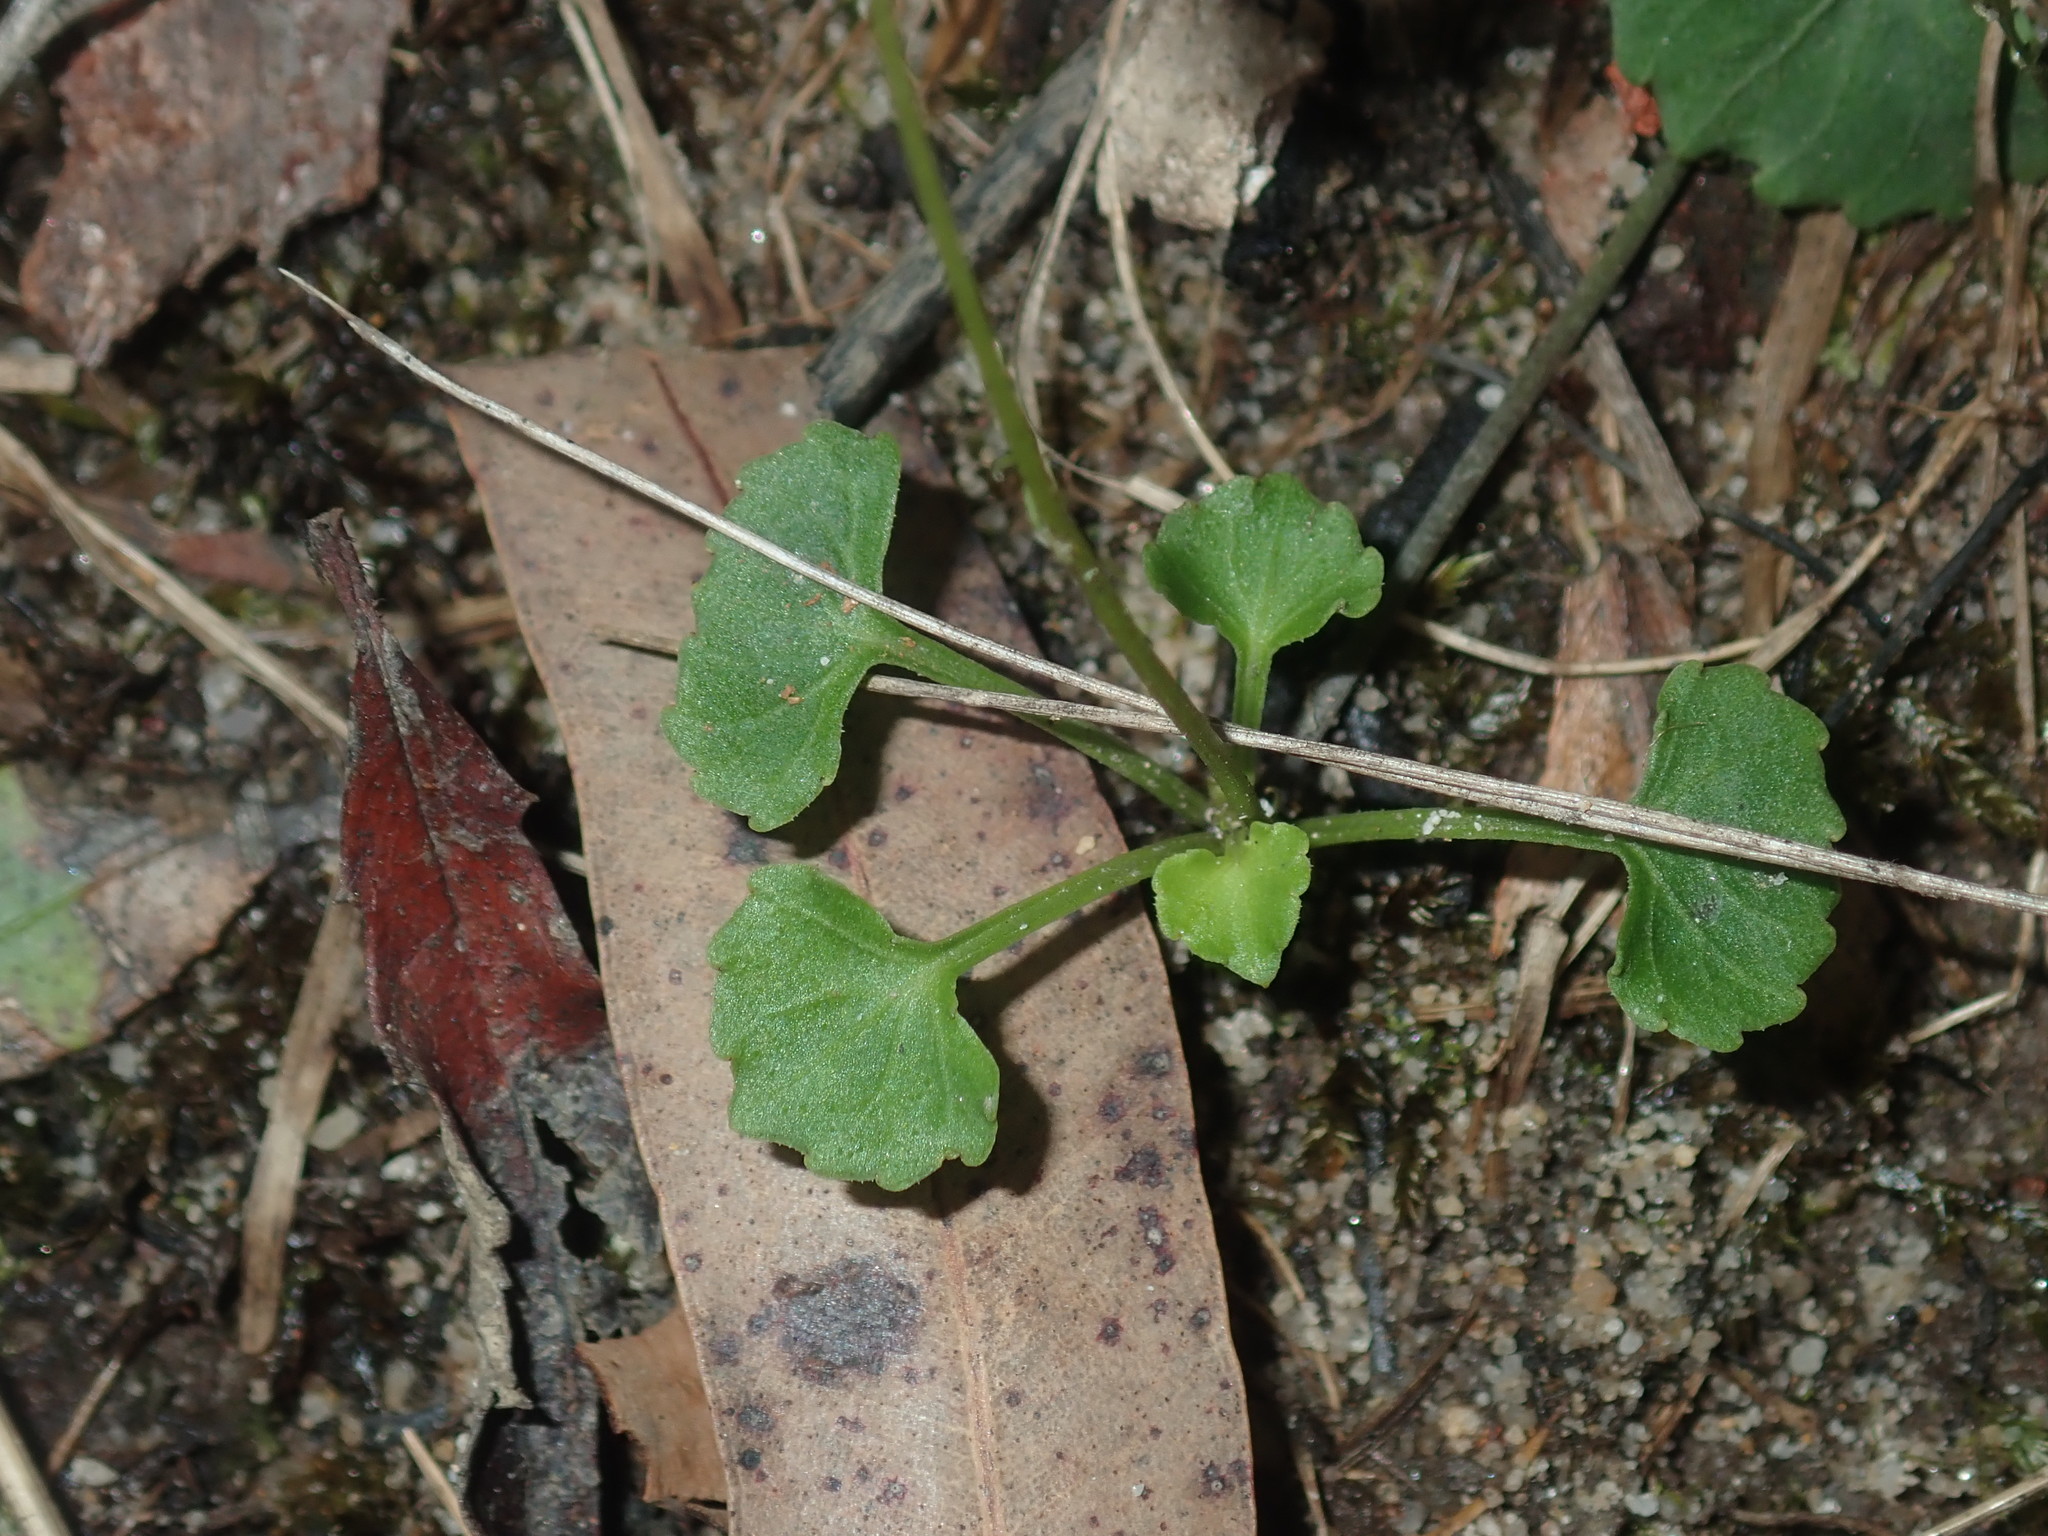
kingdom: Plantae
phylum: Tracheophyta
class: Magnoliopsida
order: Malpighiales
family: Violaceae
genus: Viola
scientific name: Viola silicestris
